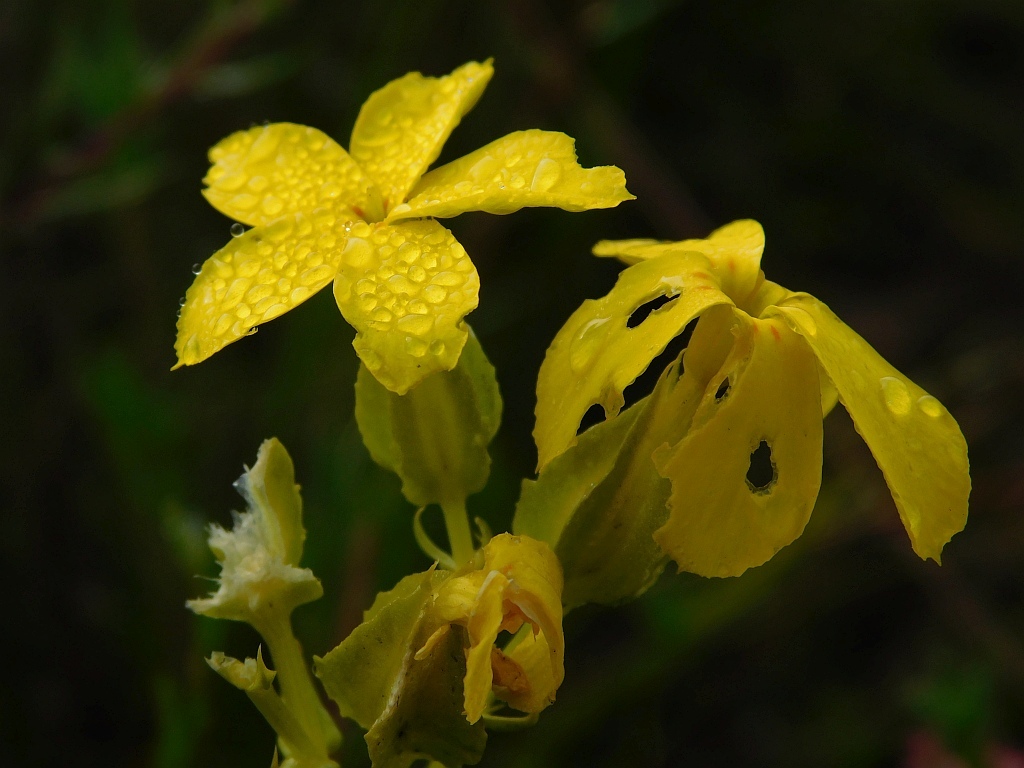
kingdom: Plantae
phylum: Tracheophyta
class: Magnoliopsida
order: Gentianales
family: Gentianaceae
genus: Sebaea
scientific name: Sebaea exacoides
